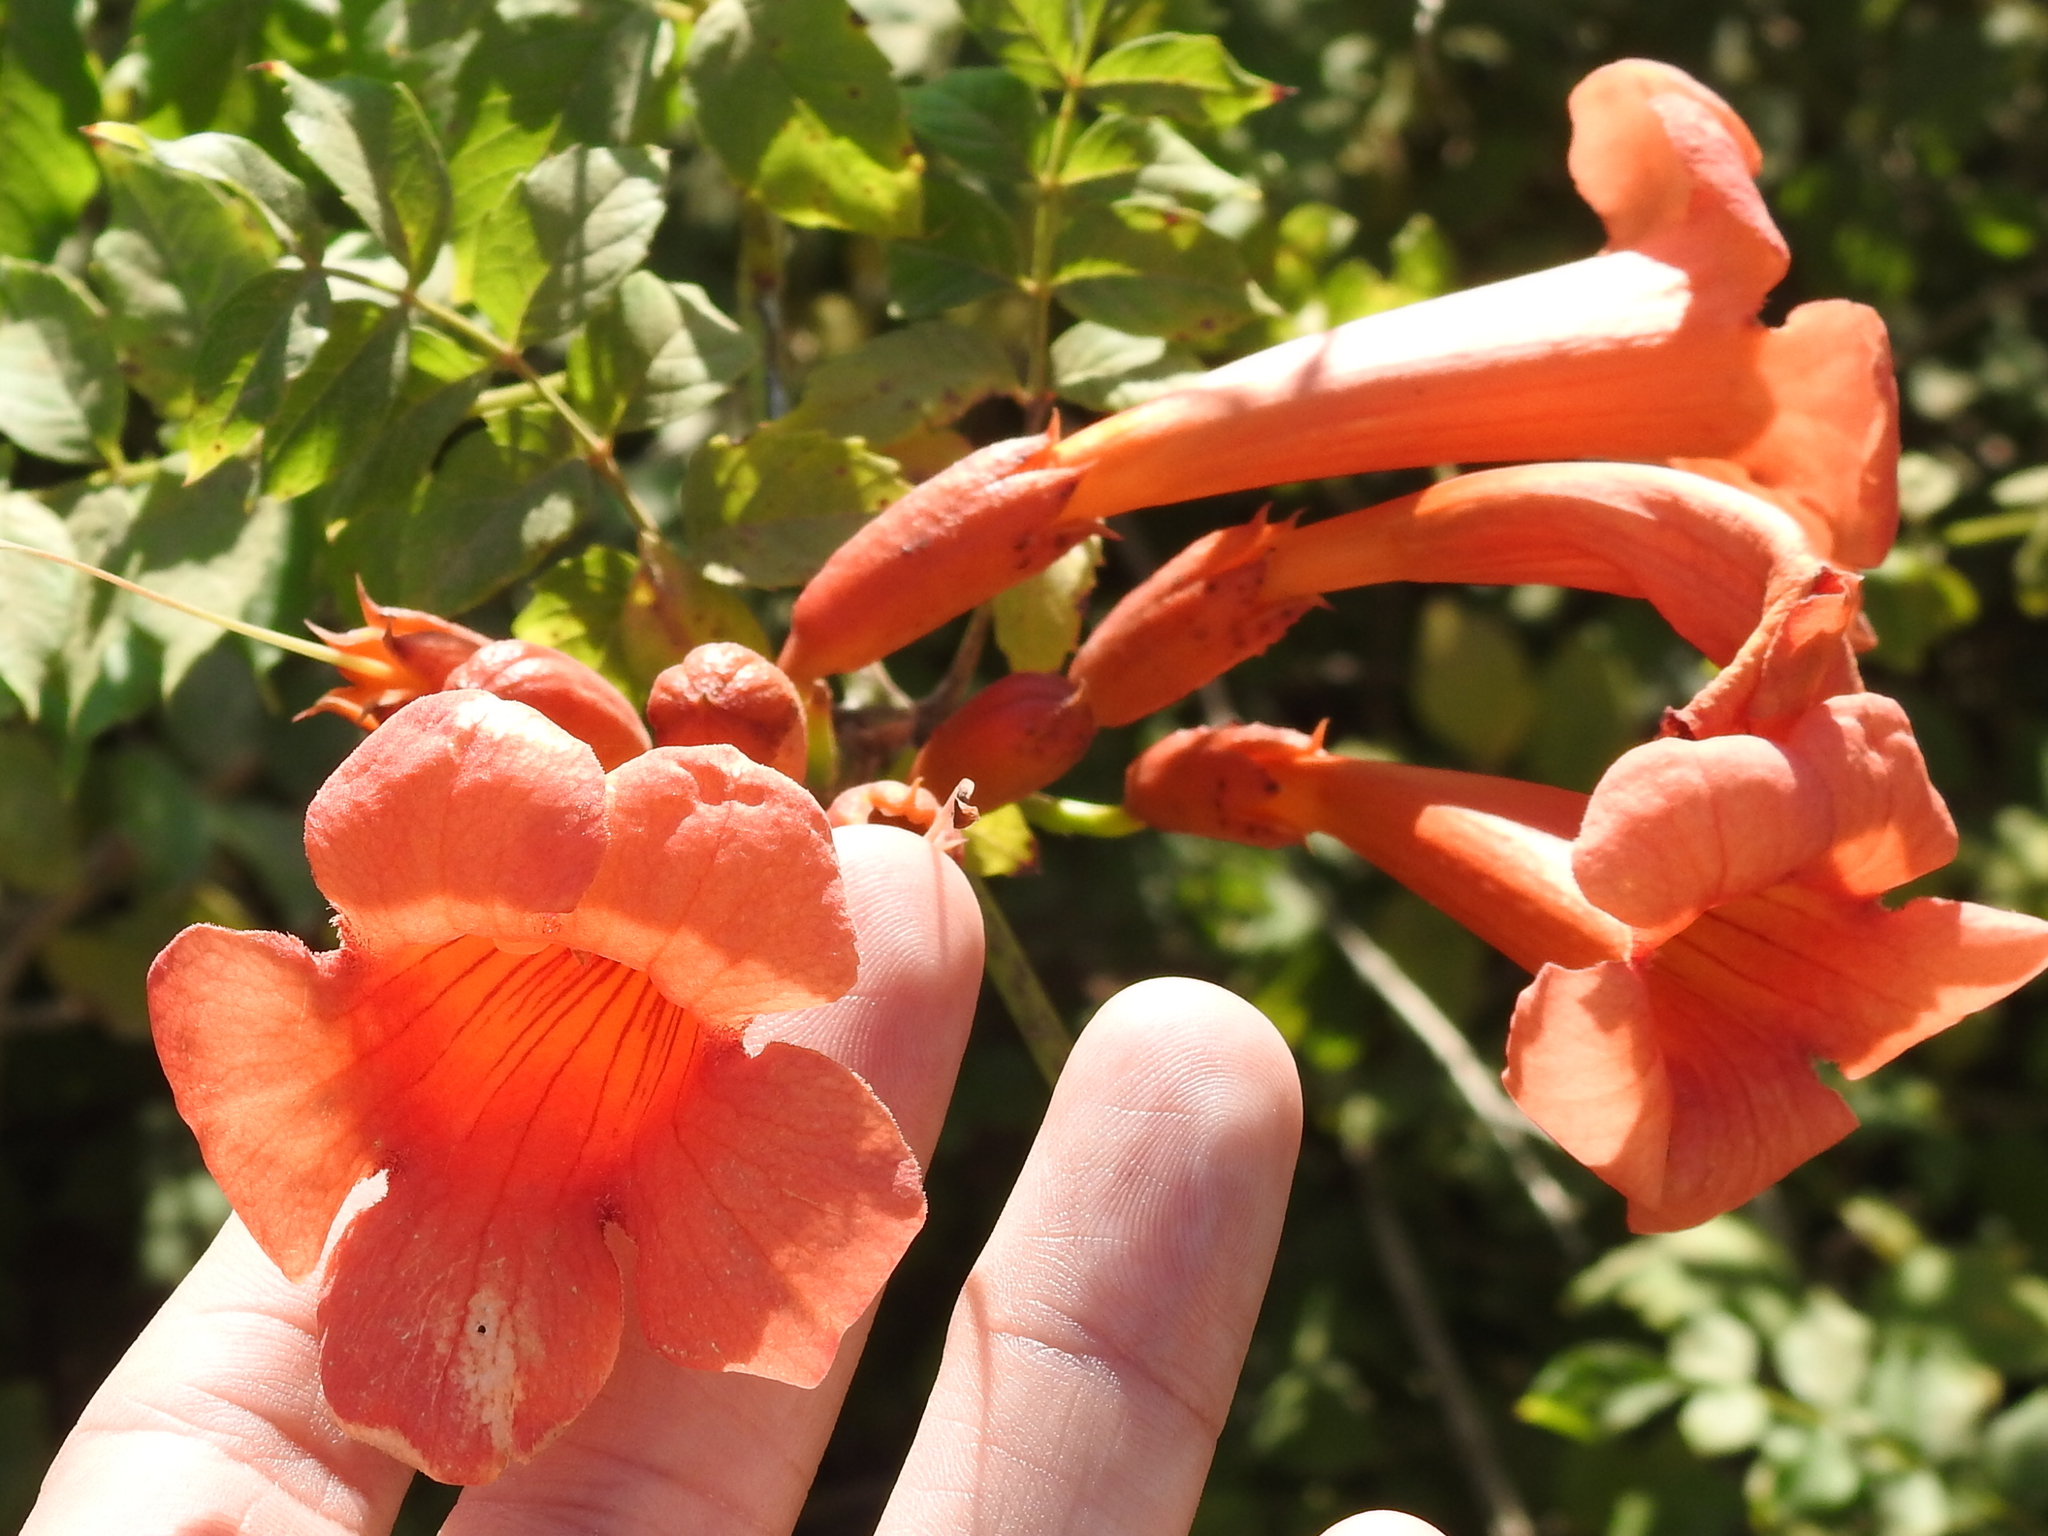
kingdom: Plantae
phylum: Tracheophyta
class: Magnoliopsida
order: Lamiales
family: Bignoniaceae
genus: Campsis
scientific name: Campsis radicans
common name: Trumpet-creeper
